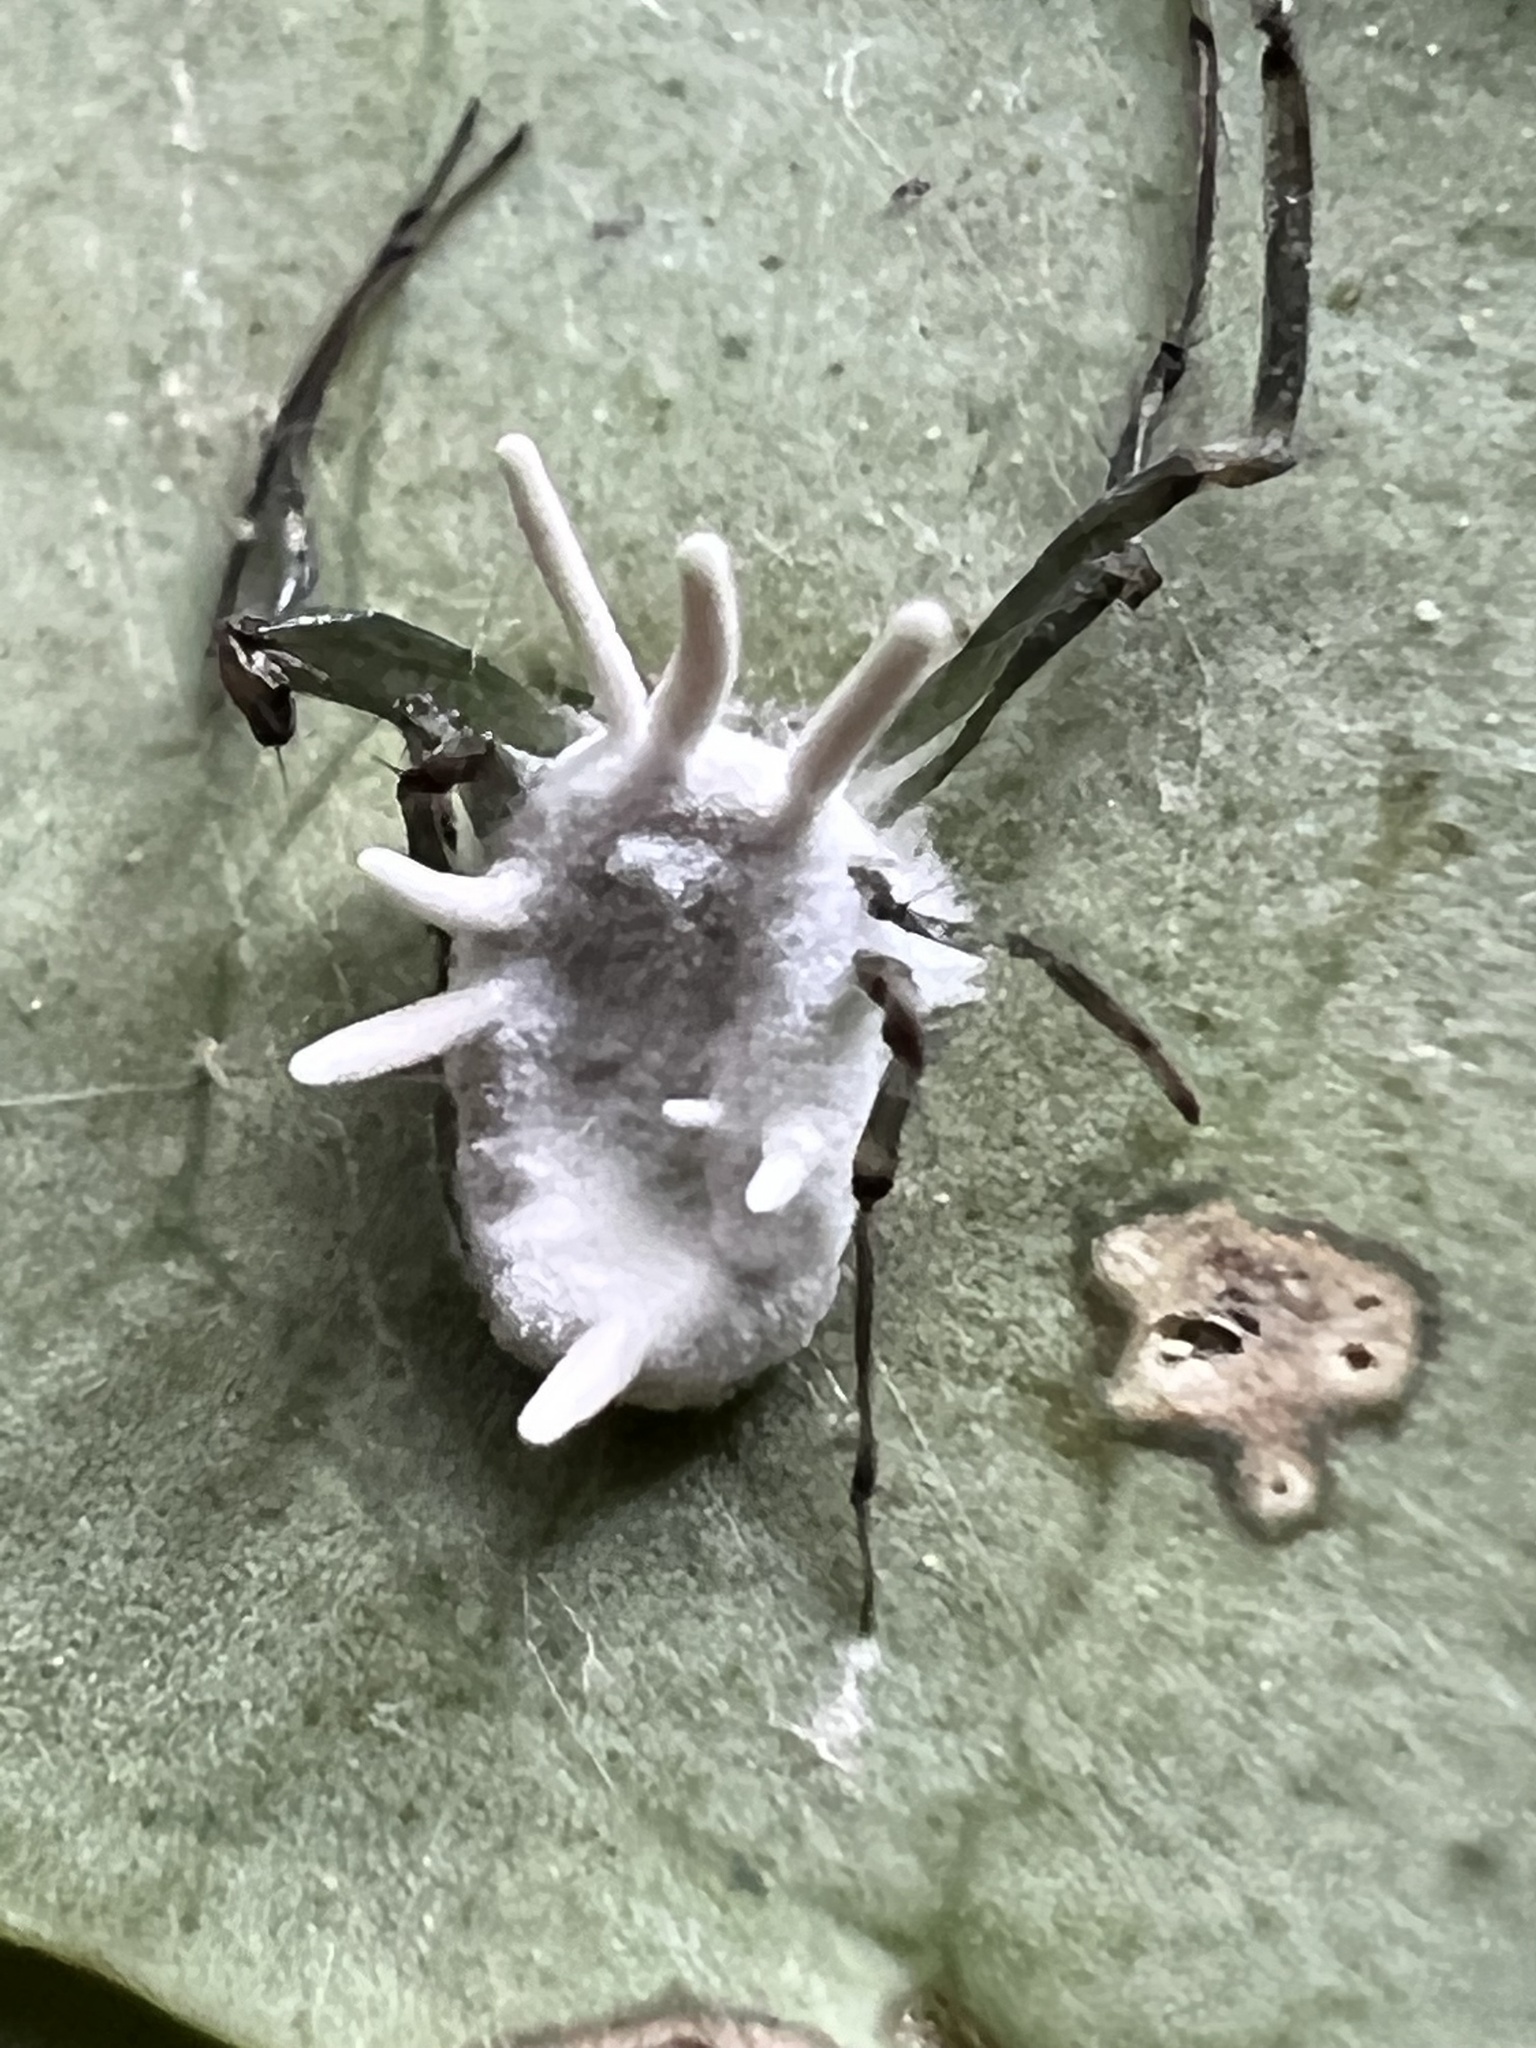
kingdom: Fungi
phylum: Ascomycota
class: Sordariomycetes
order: Hypocreales
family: Cordycipitaceae
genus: Gibellula
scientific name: Gibellula arachnophila
